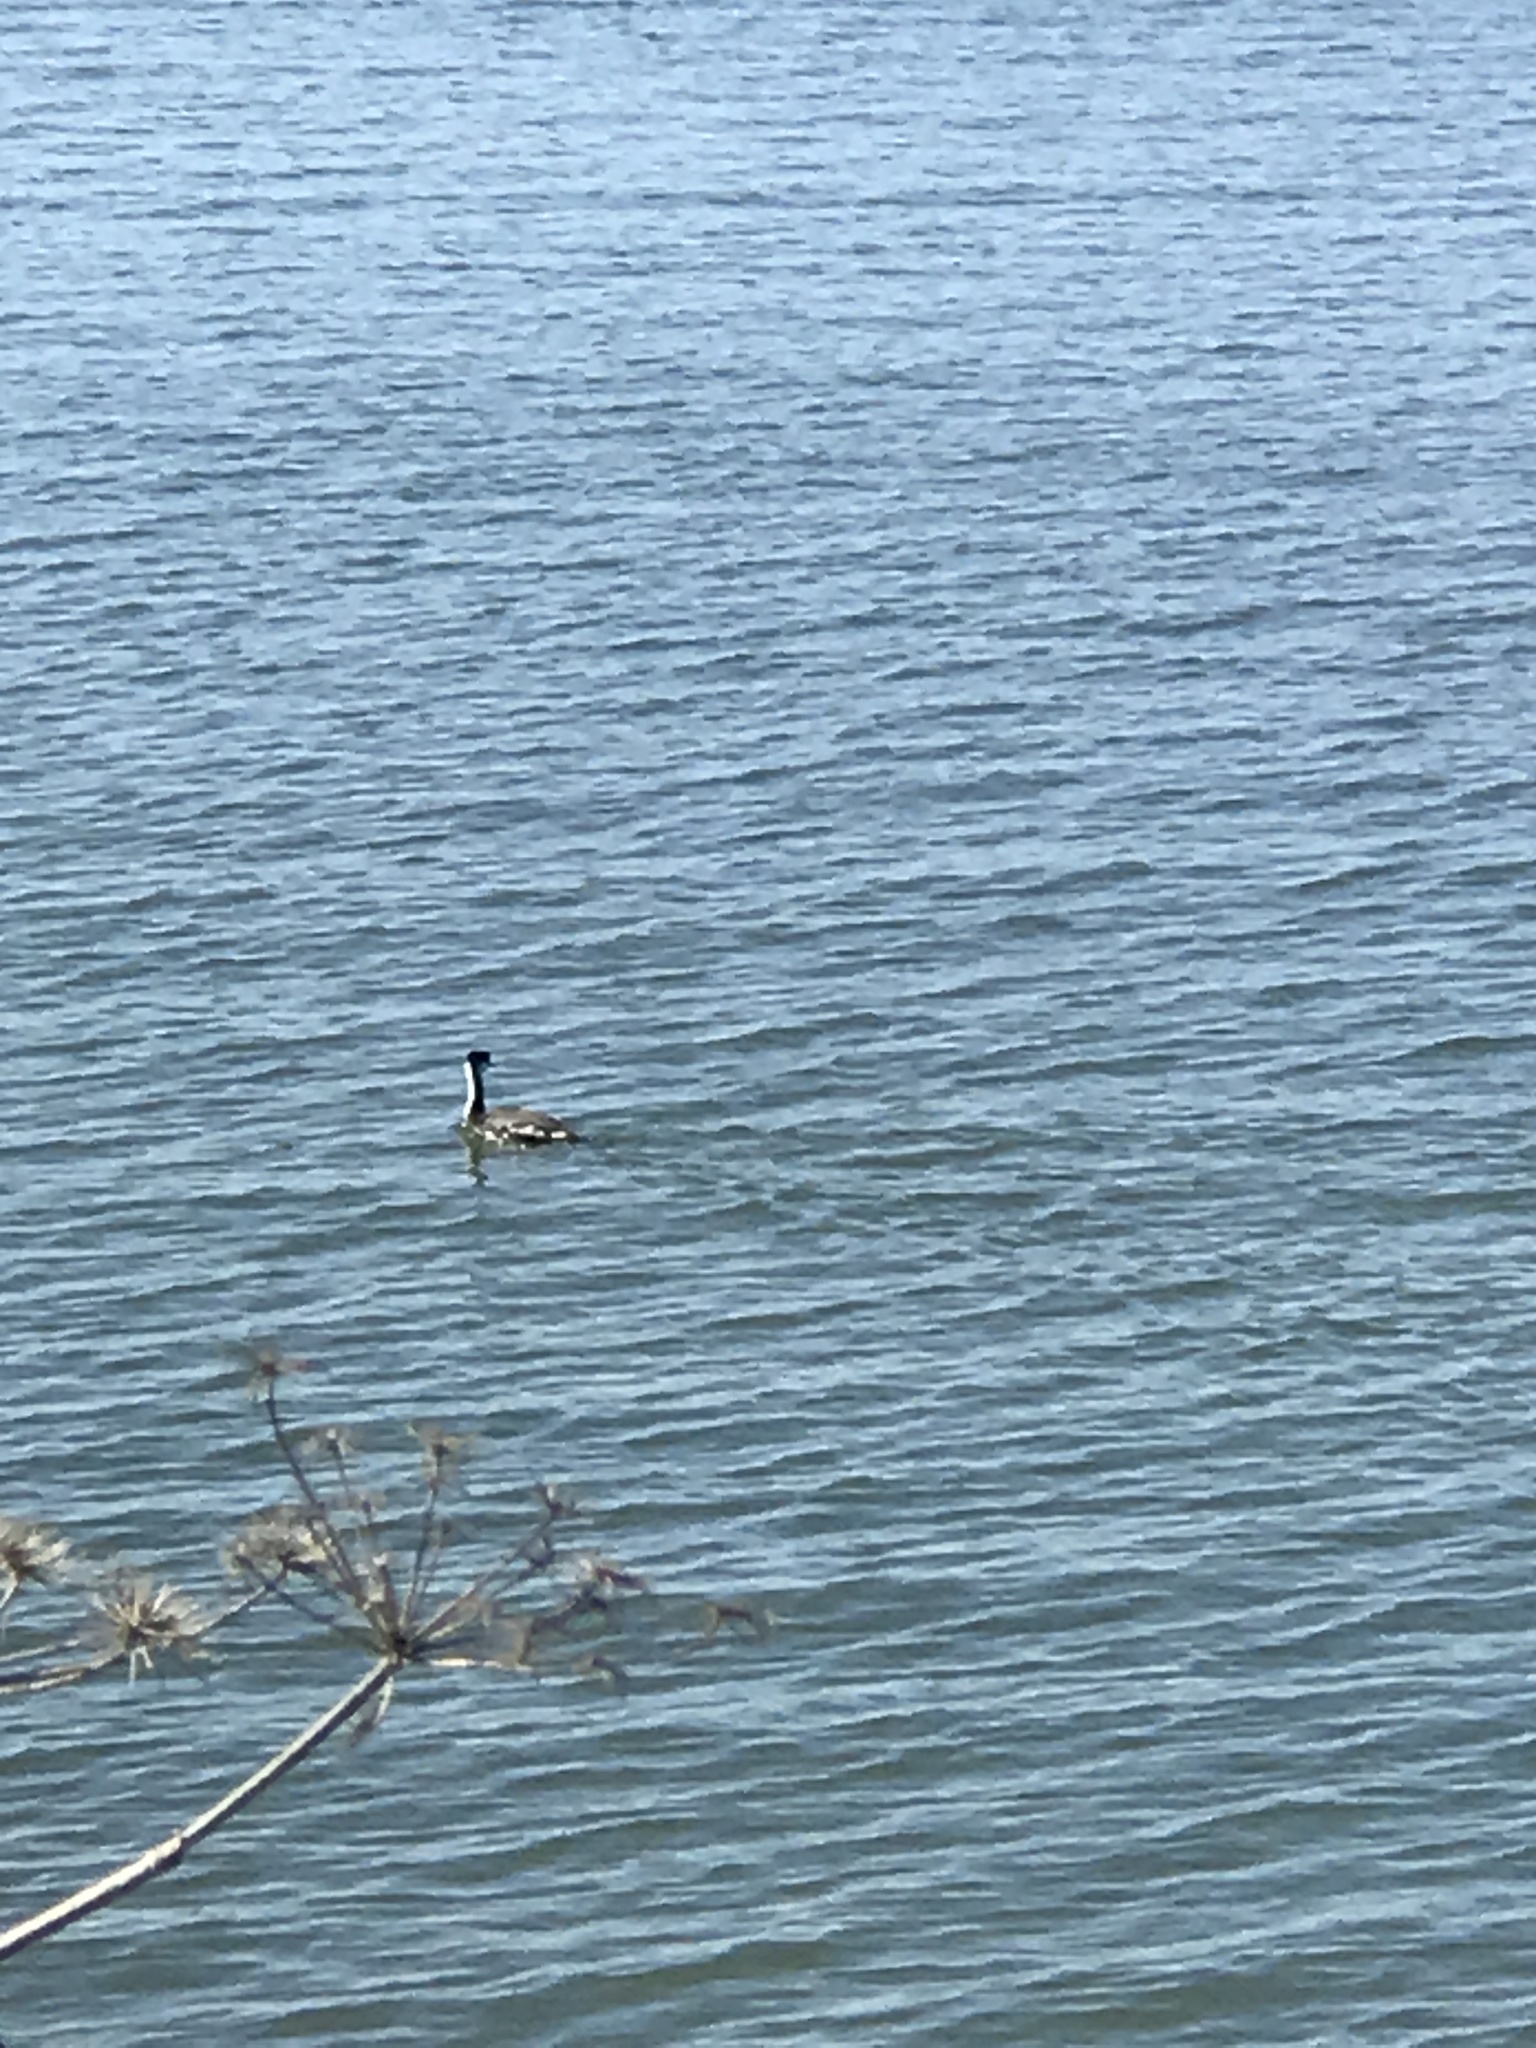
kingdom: Animalia
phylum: Chordata
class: Aves
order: Podicipediformes
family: Podicipedidae
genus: Aechmophorus
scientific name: Aechmophorus occidentalis
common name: Western grebe
